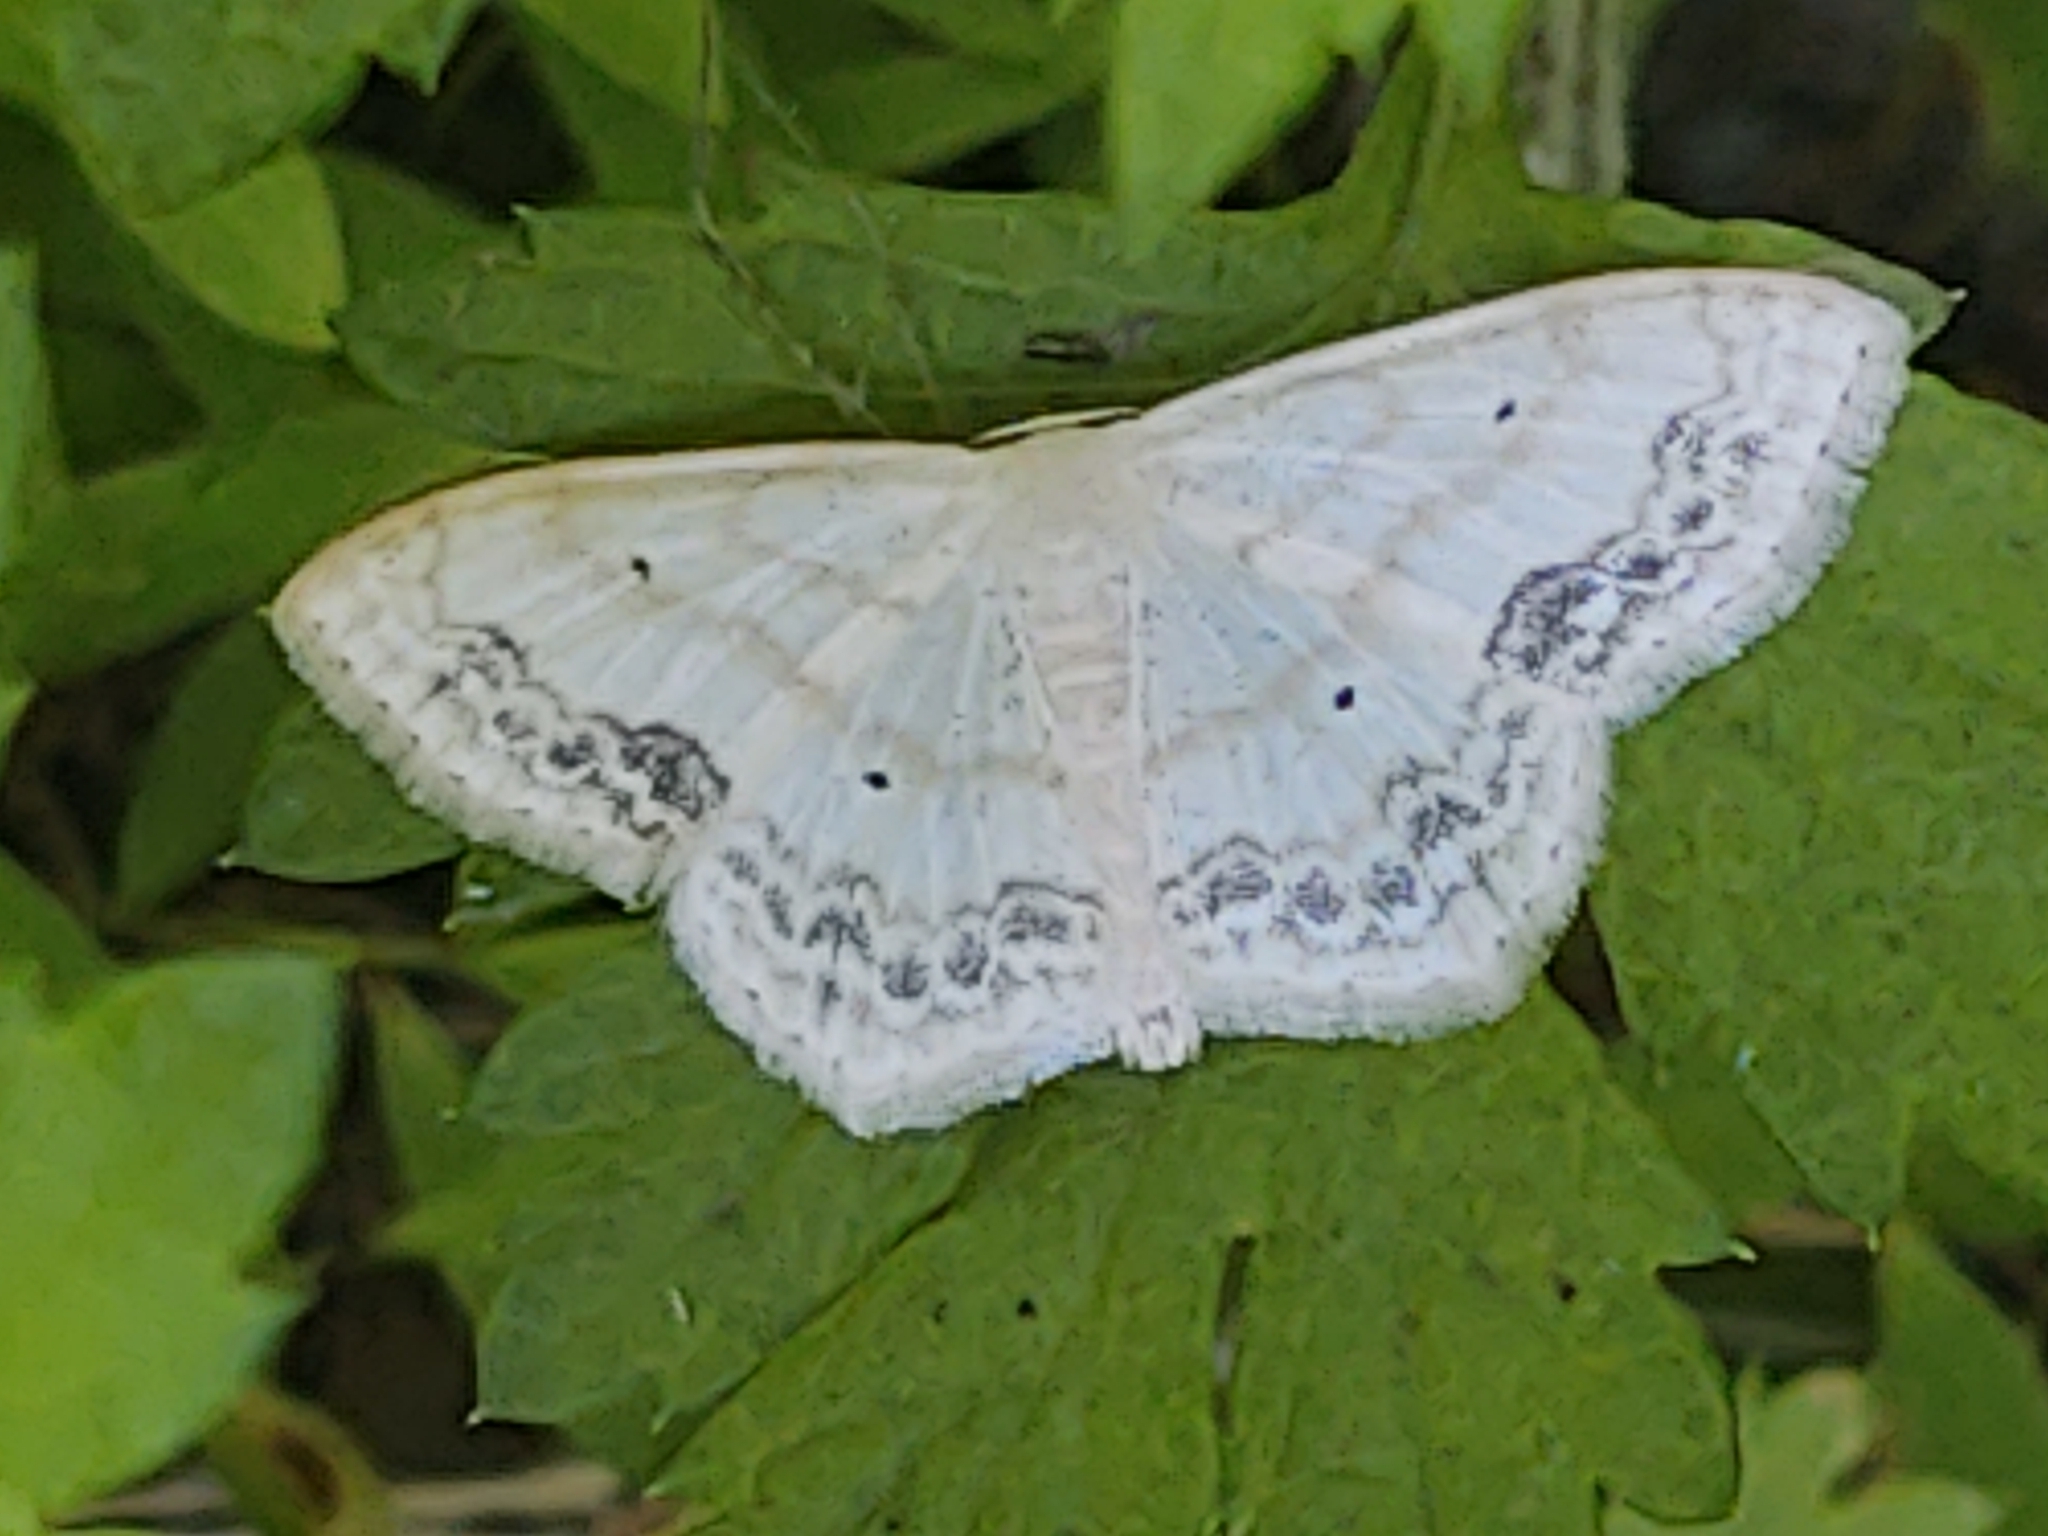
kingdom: Animalia
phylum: Arthropoda
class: Insecta
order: Lepidoptera
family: Geometridae
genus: Scopula
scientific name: Scopula limboundata
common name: Large lace border
